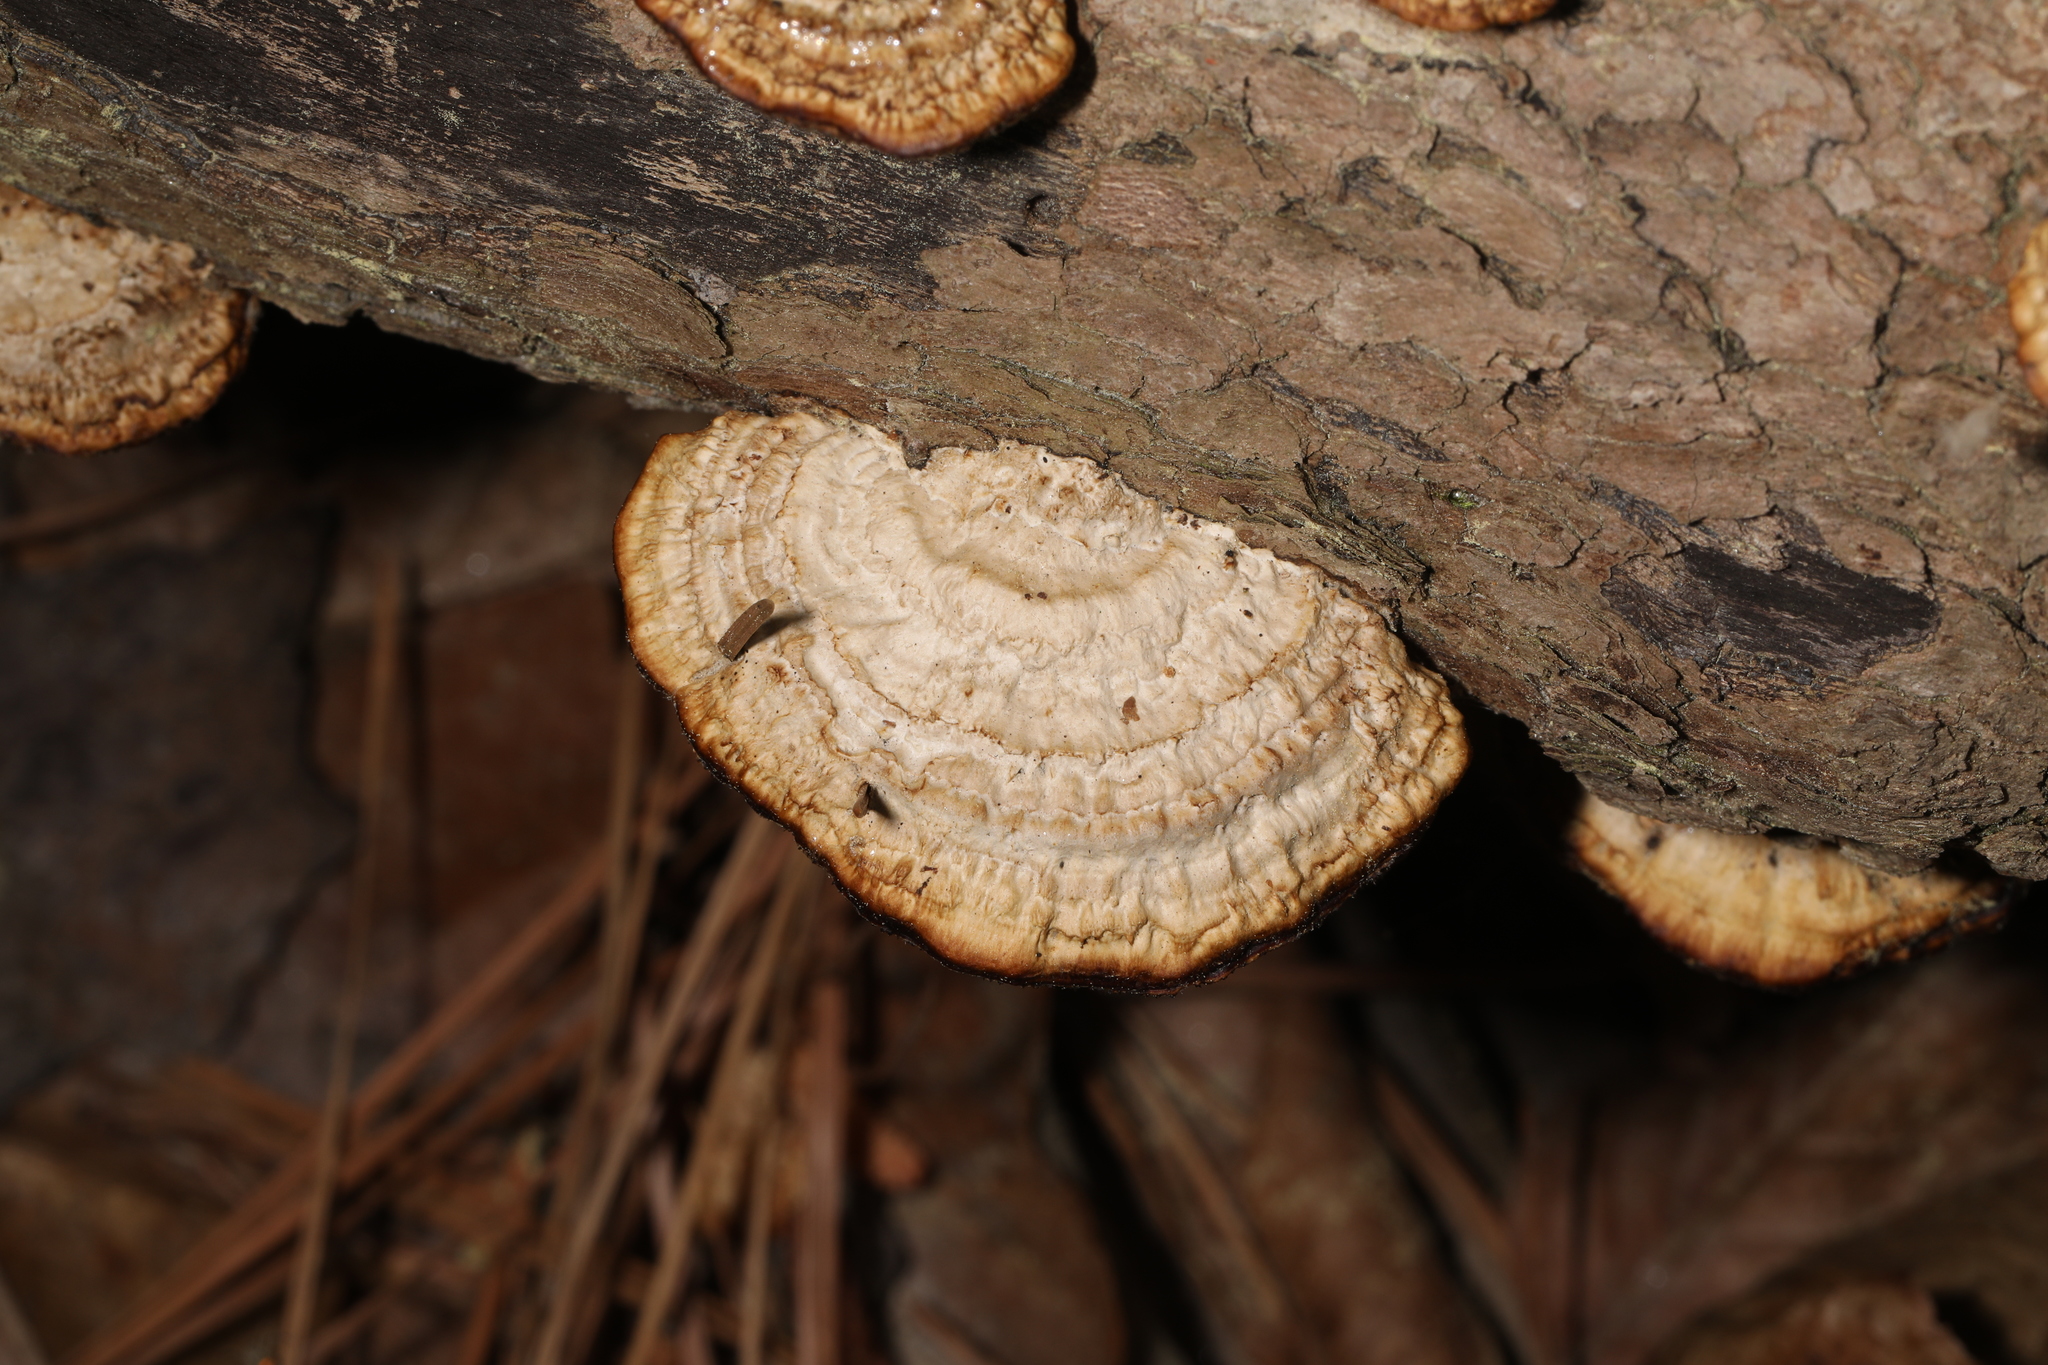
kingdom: Fungi
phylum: Basidiomycota
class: Agaricomycetes
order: Gloeophyllales
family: Gloeophyllaceae
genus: Gloeophyllum
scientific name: Gloeophyllum sepiarium
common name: Conifer mazegill
